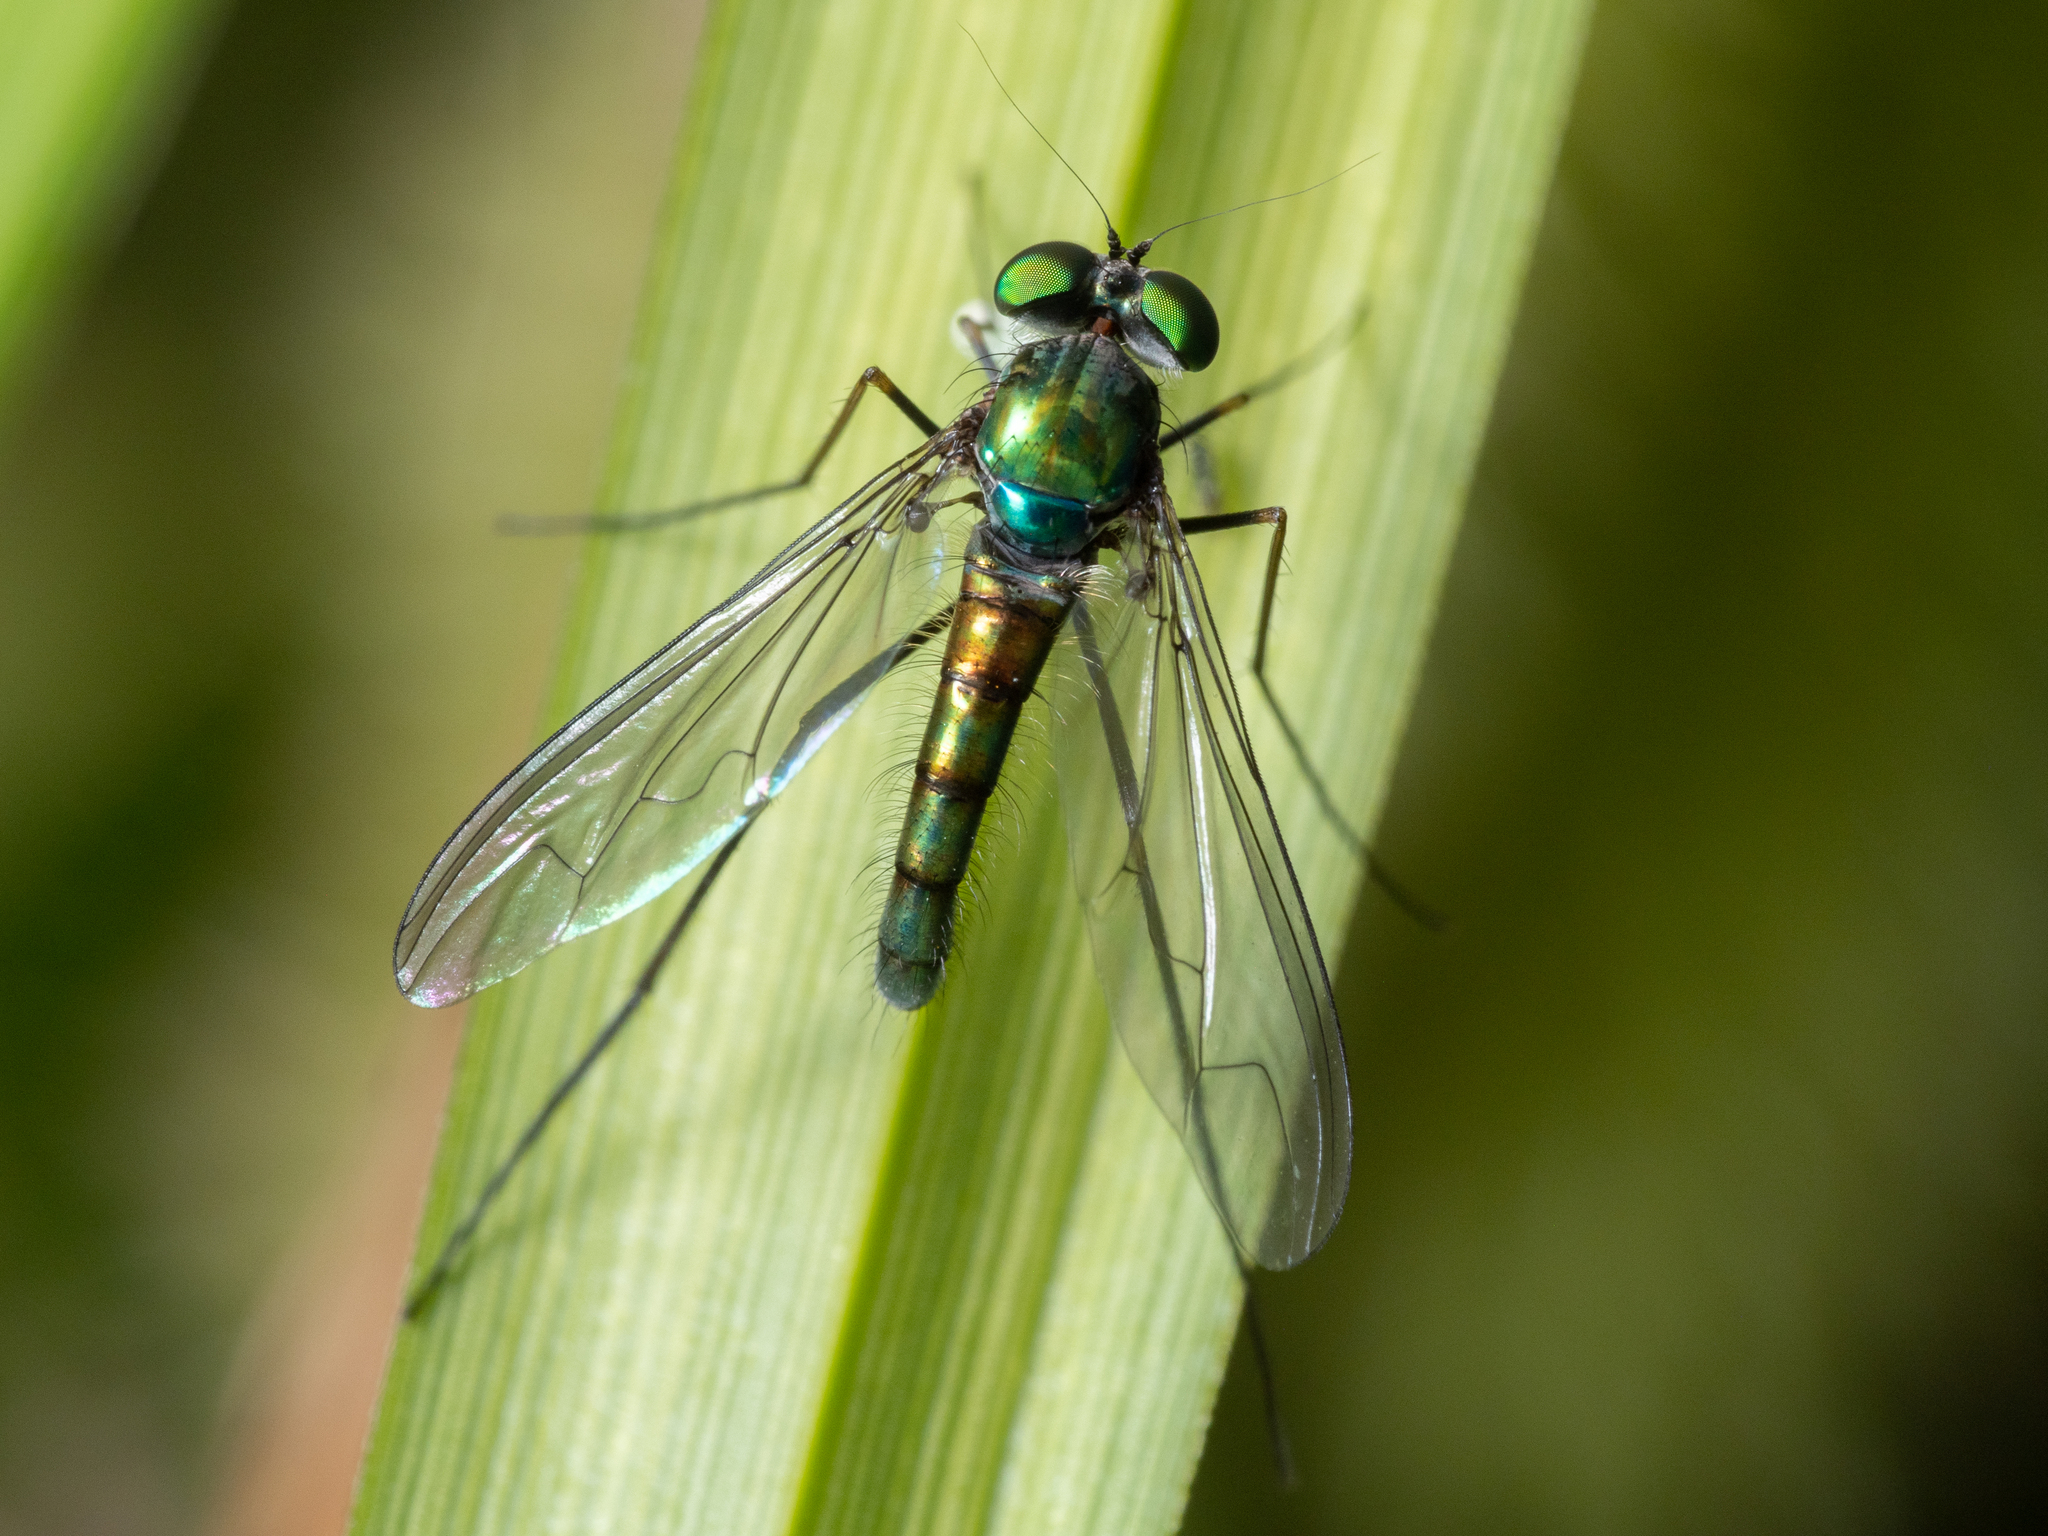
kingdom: Animalia
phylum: Arthropoda
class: Insecta
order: Diptera
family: Dolichopodidae
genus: Heteropsilopus
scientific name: Heteropsilopus cingulipes
